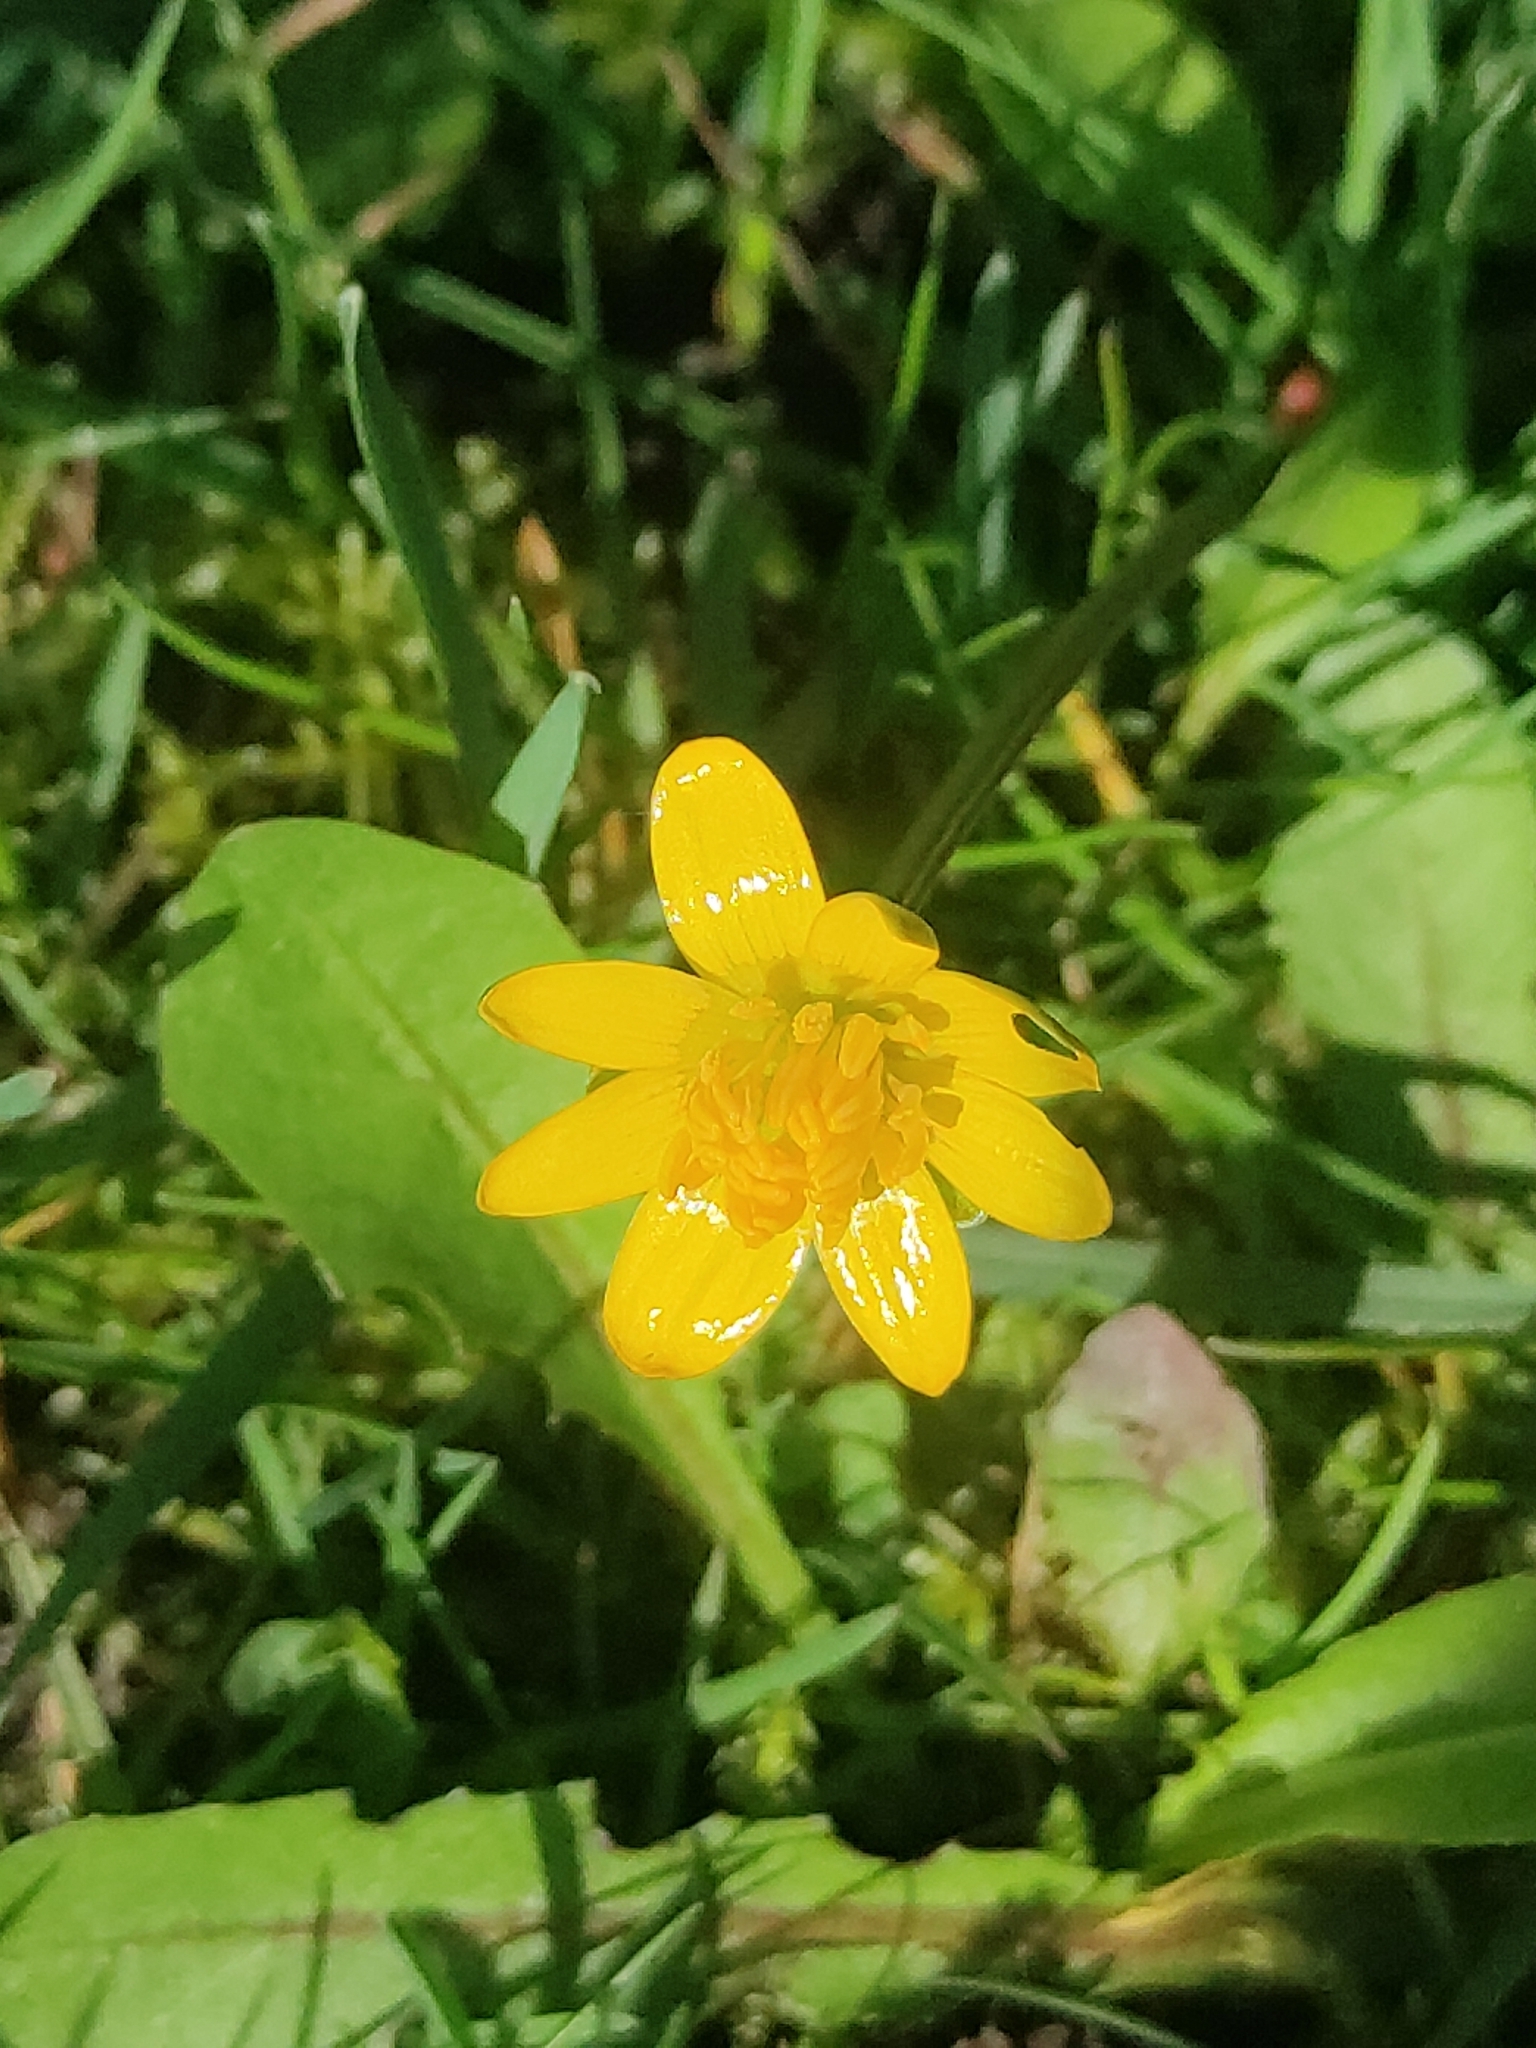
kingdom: Plantae
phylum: Tracheophyta
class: Magnoliopsida
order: Ranunculales
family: Ranunculaceae
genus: Ficaria
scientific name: Ficaria verna
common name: Lesser celandine
